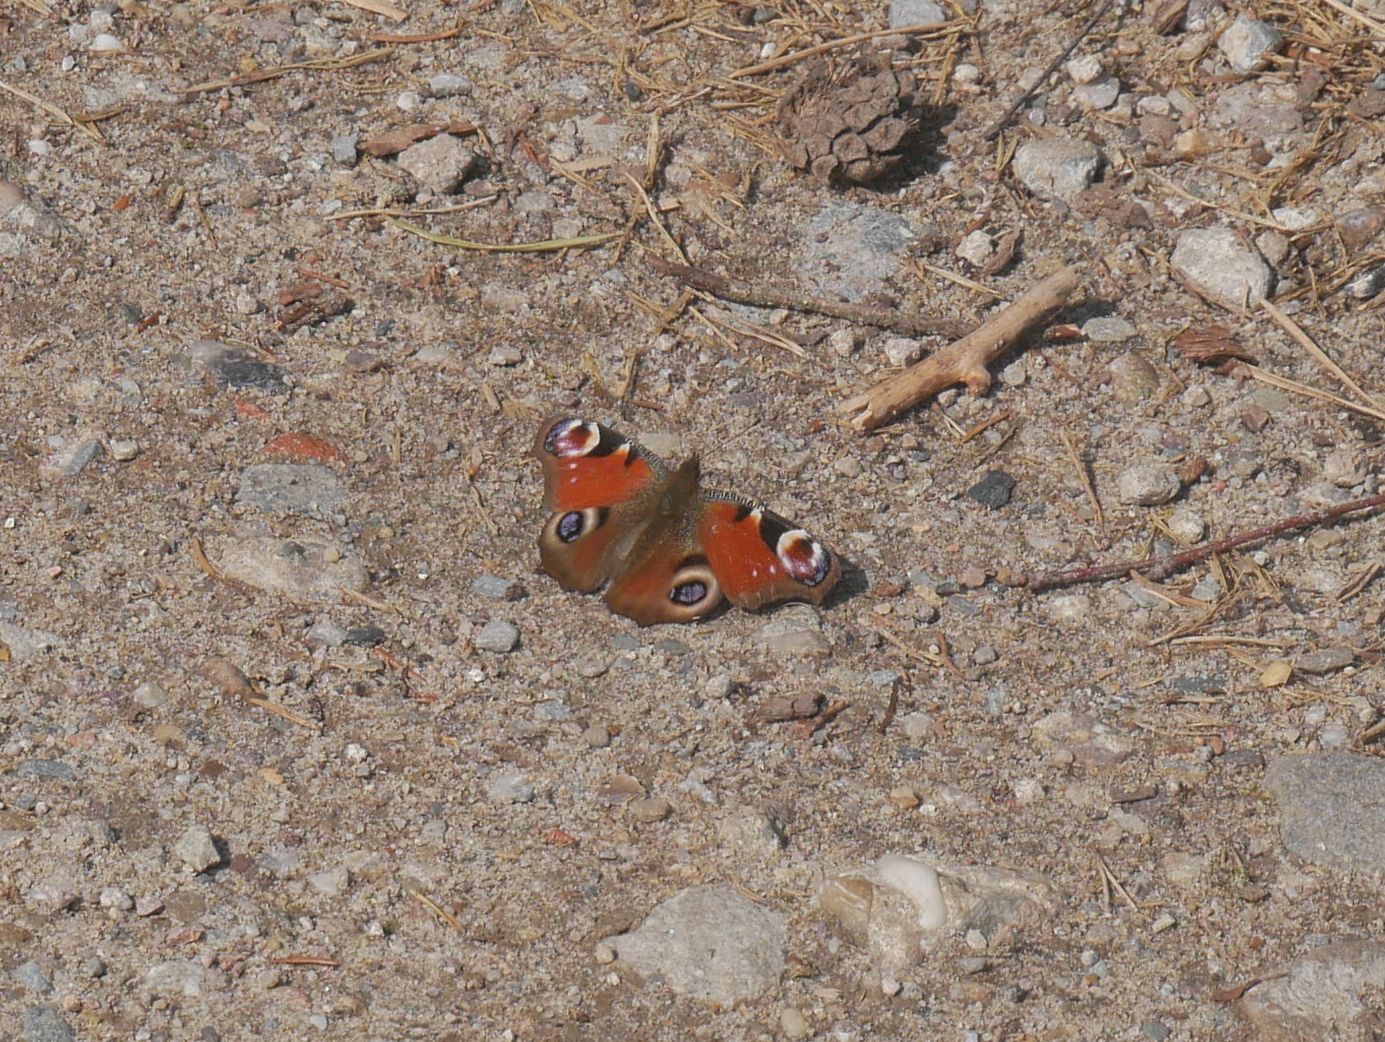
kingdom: Animalia
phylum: Arthropoda
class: Insecta
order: Lepidoptera
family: Nymphalidae
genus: Aglais
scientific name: Aglais io
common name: Peacock
